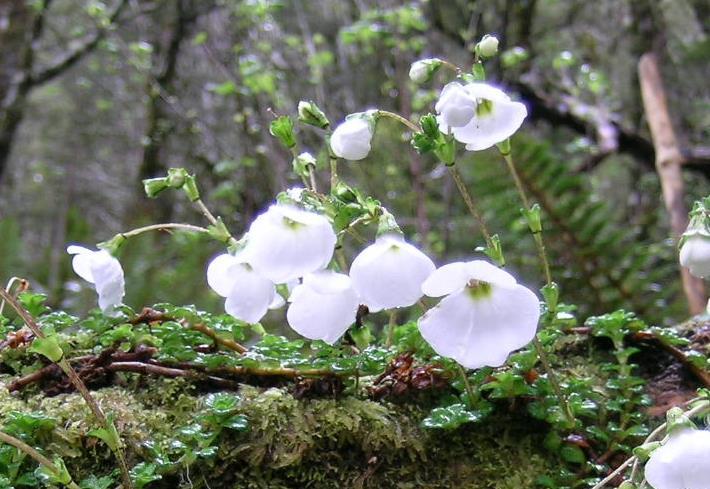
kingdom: Plantae
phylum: Tracheophyta
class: Magnoliopsida
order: Lamiales
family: Plantaginaceae
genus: Ourisia
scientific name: Ourisia caespitosa
